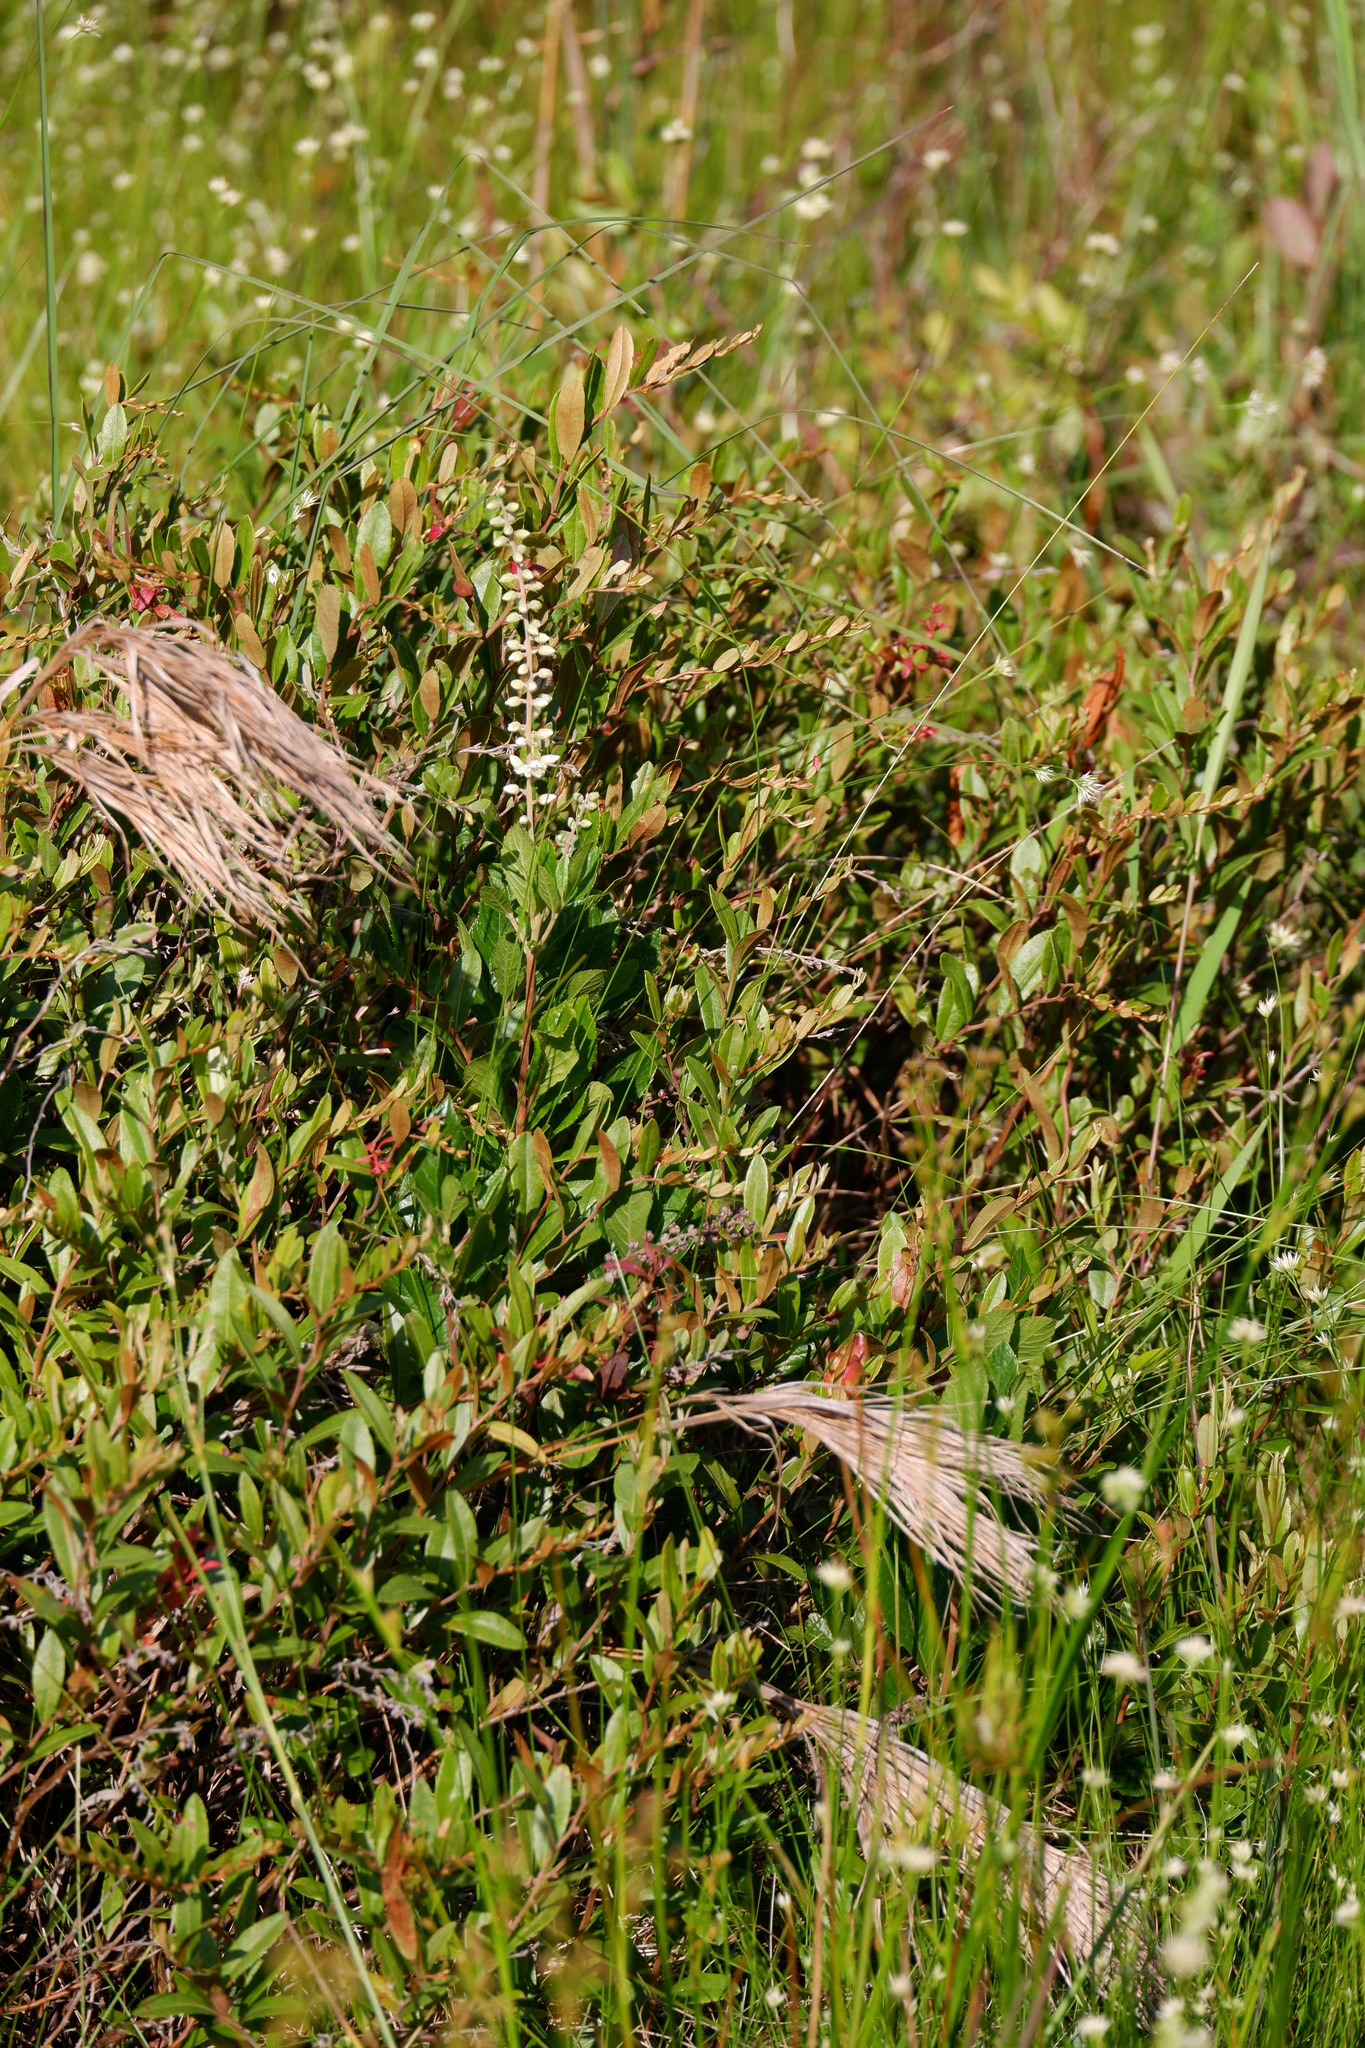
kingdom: Plantae
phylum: Tracheophyta
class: Magnoliopsida
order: Ericales
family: Ericaceae
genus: Chamaedaphne
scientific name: Chamaedaphne calyculata
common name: Leatherleaf
